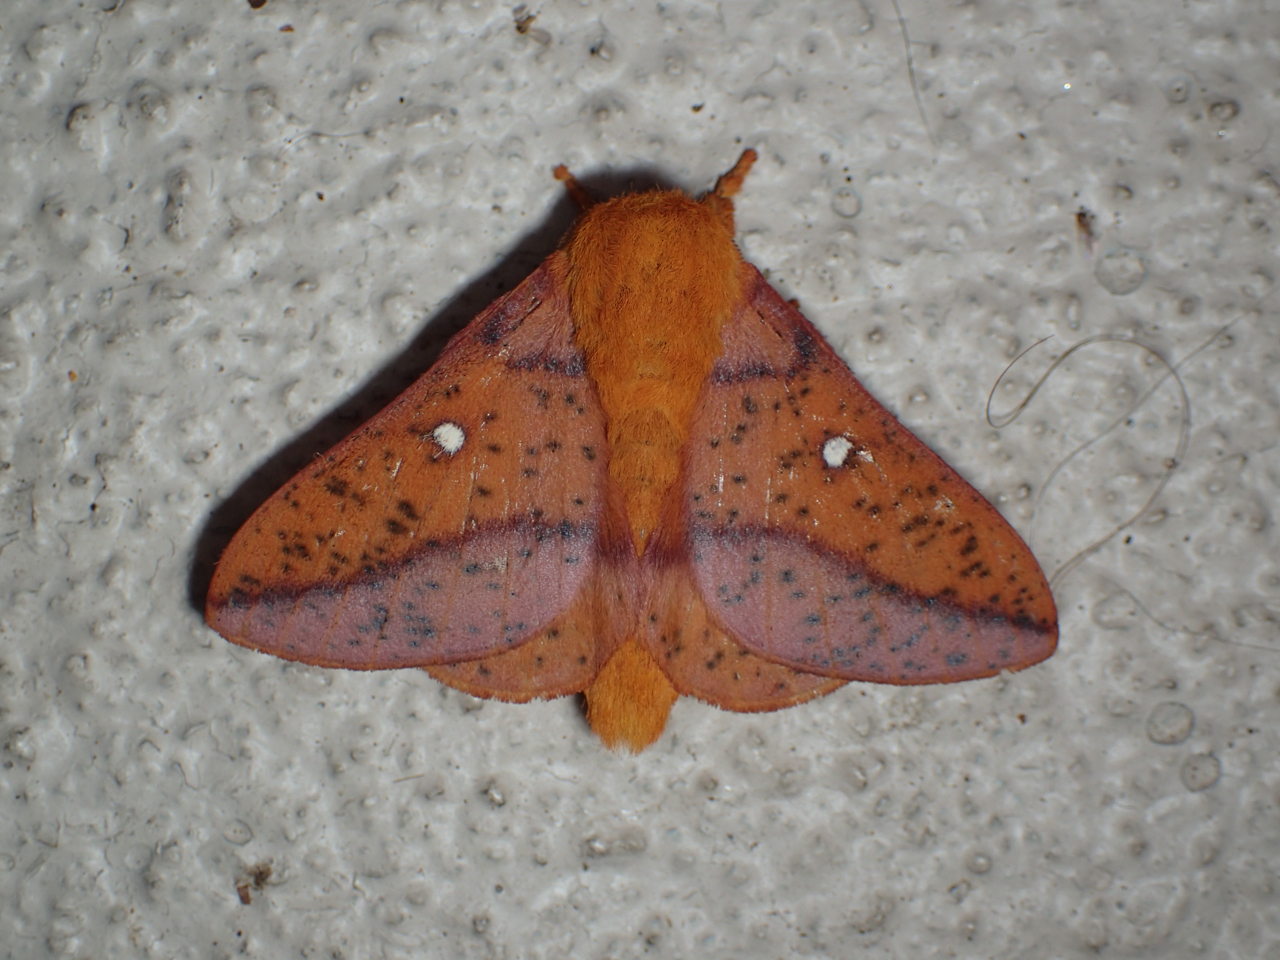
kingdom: Animalia
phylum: Arthropoda
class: Insecta
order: Lepidoptera
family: Saturniidae
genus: Anisota
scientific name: Anisota stigma
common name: Spiny oakworm moth
